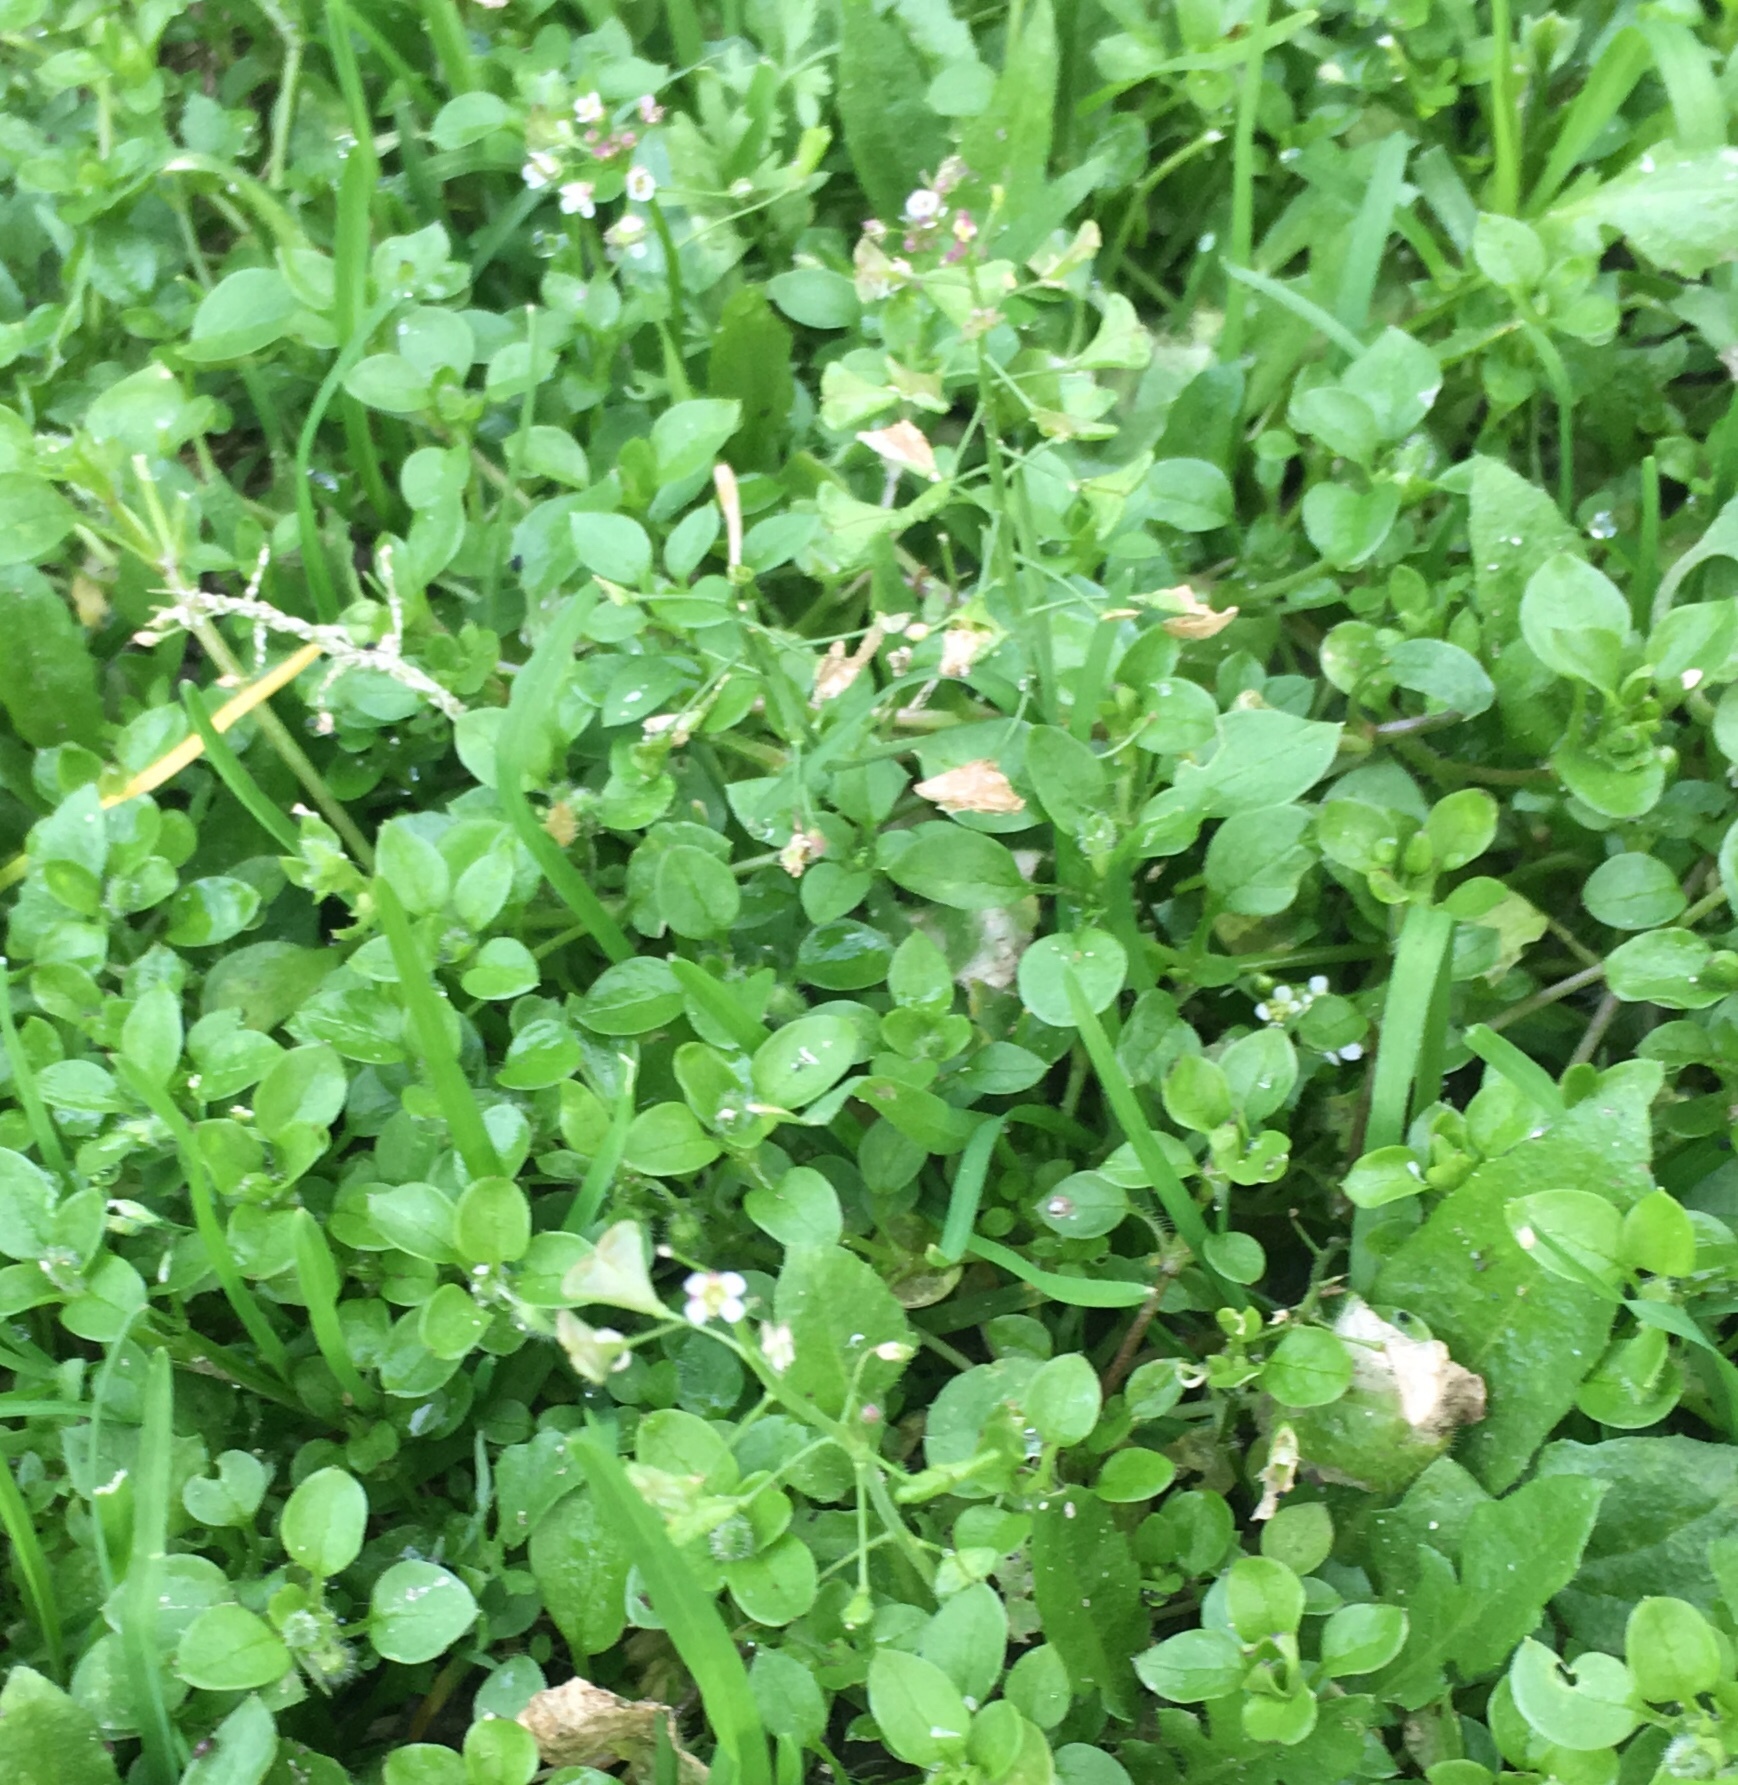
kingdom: Plantae
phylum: Tracheophyta
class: Magnoliopsida
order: Brassicales
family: Brassicaceae
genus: Capsella
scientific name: Capsella bursa-pastoris
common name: Shepherd's purse
